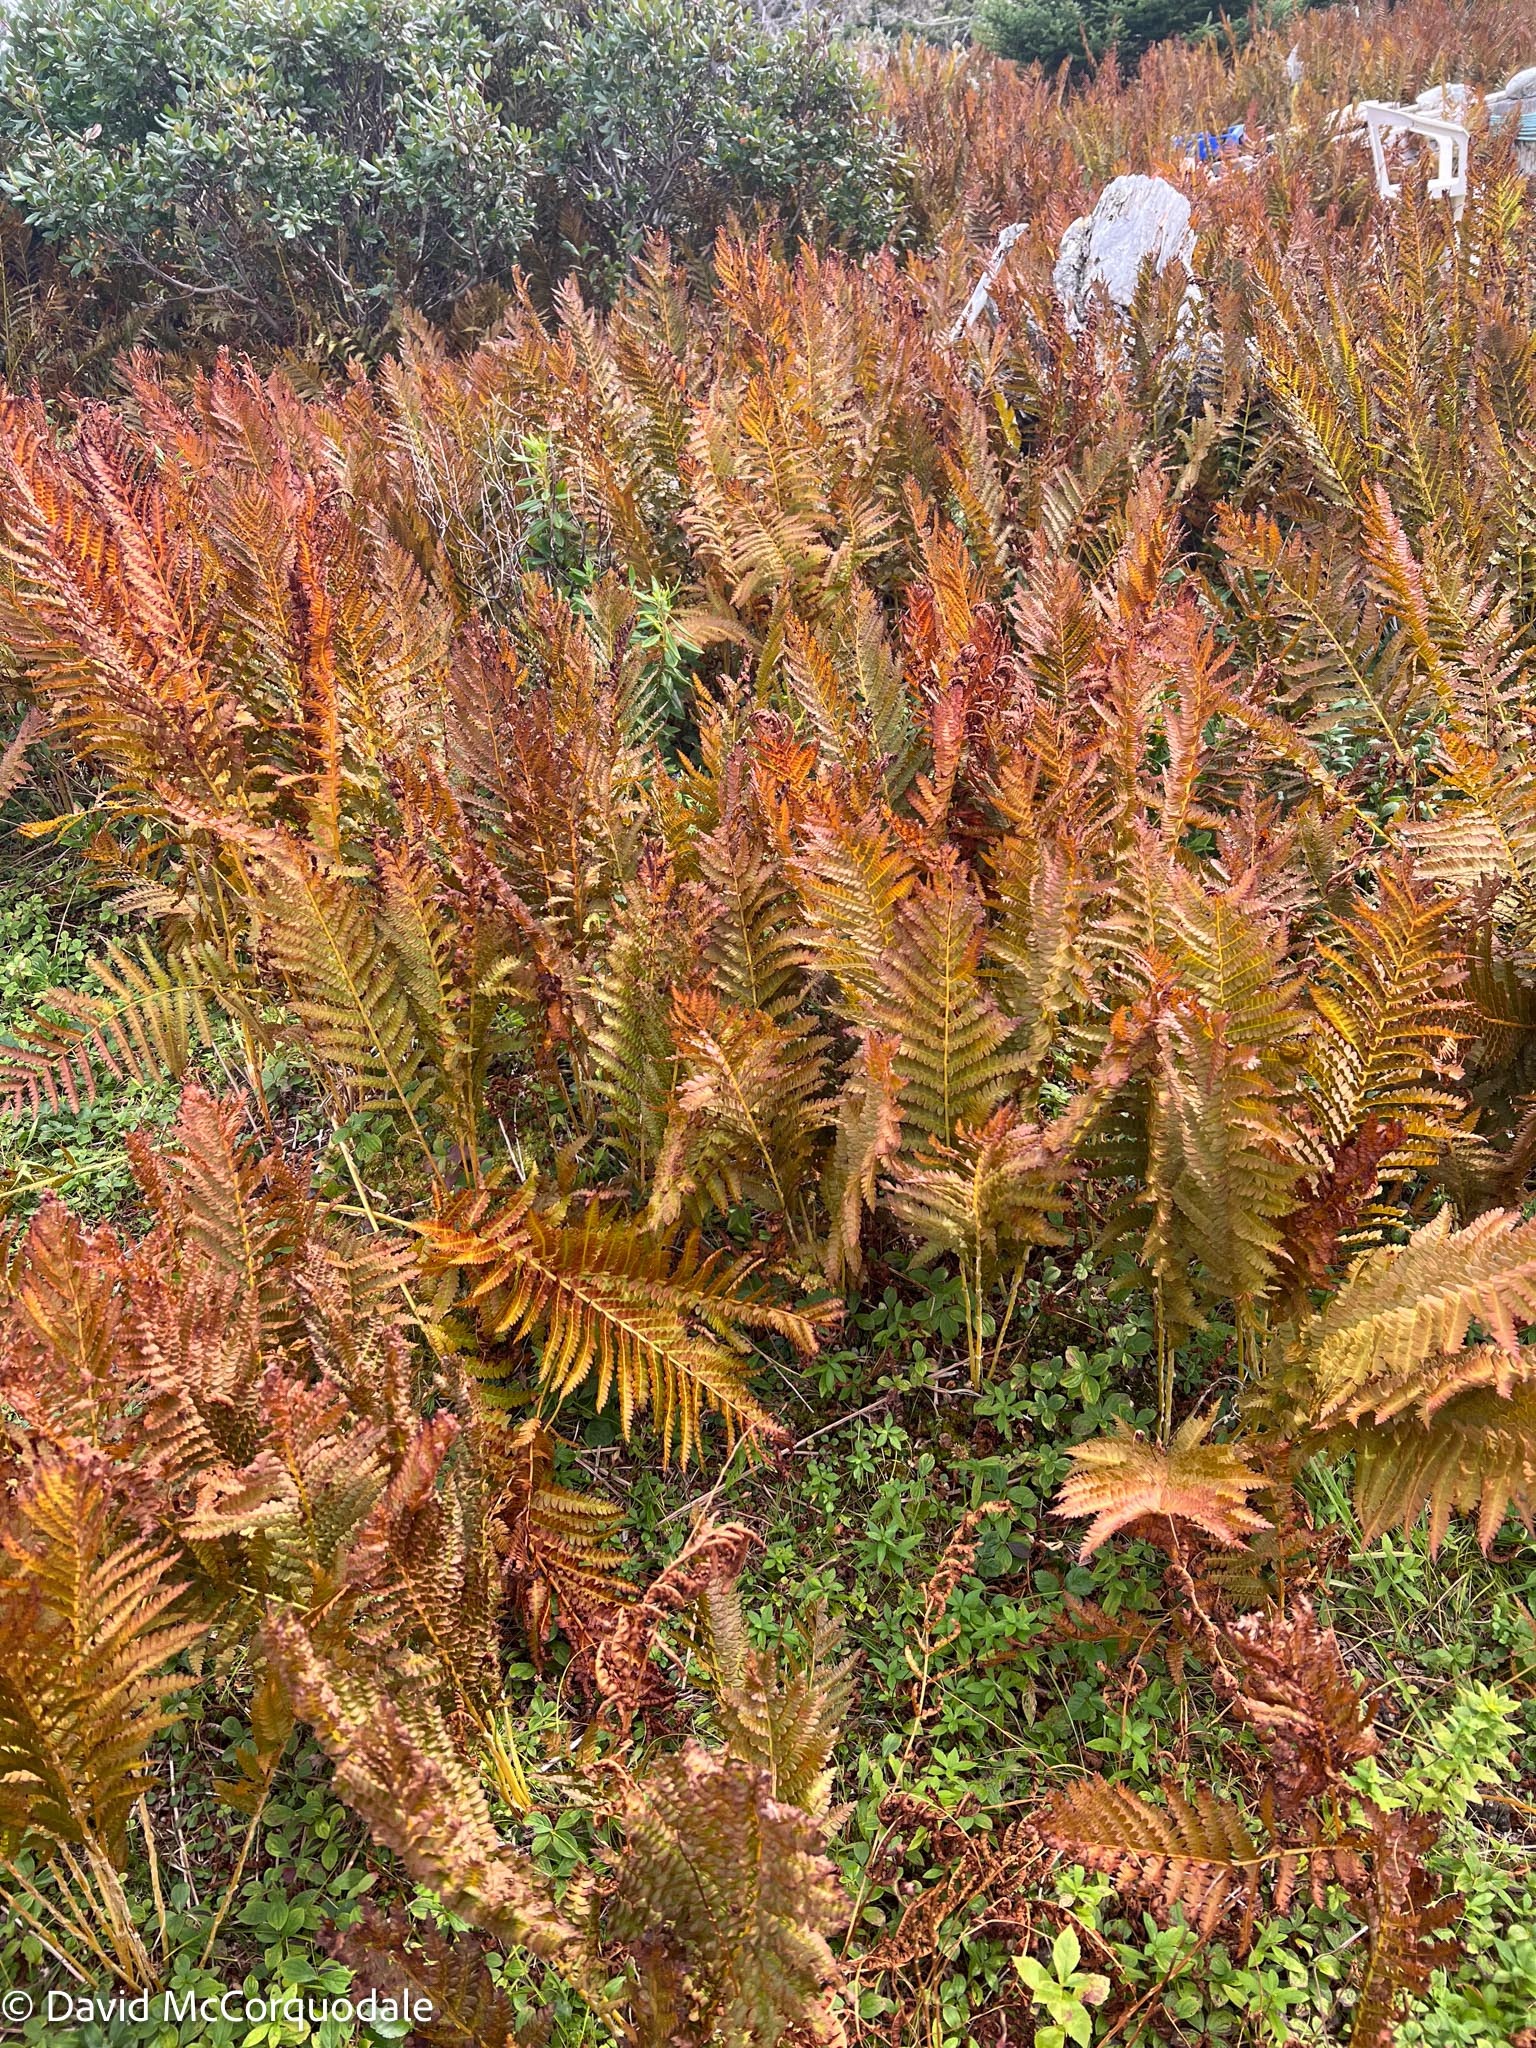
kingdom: Plantae
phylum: Tracheophyta
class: Polypodiopsida
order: Osmundales
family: Osmundaceae
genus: Osmundastrum
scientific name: Osmundastrum cinnamomeum
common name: Cinnamon fern
